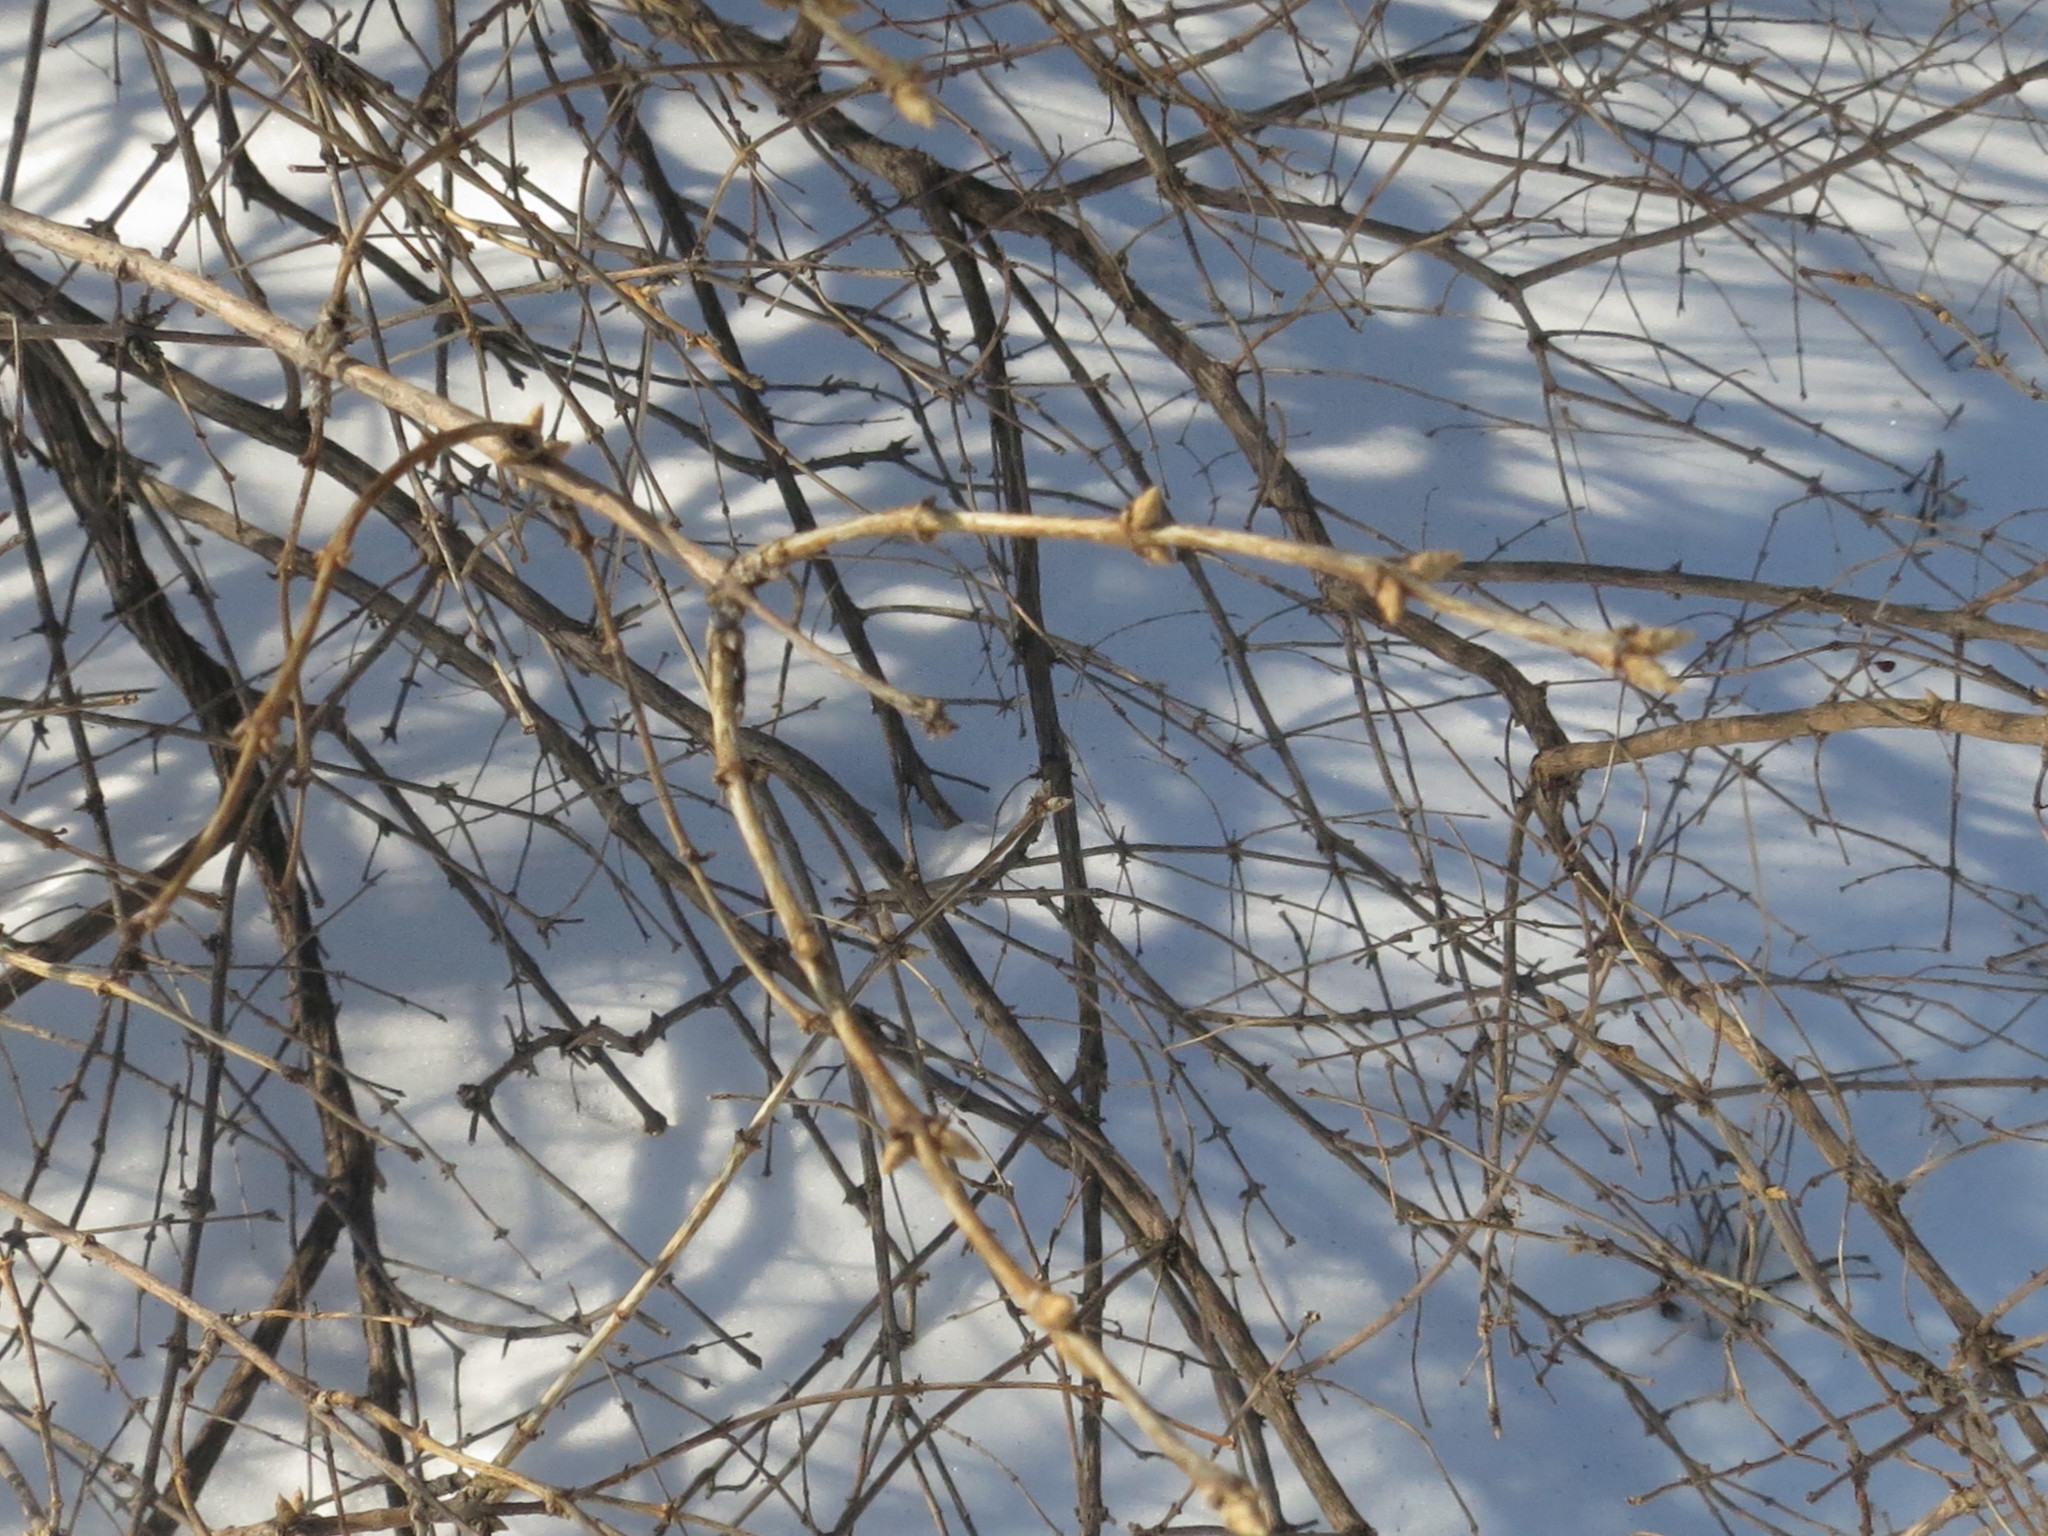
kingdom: Plantae
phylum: Tracheophyta
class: Magnoliopsida
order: Dipsacales
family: Caprifoliaceae
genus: Lonicera
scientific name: Lonicera maackii
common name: Amur honeysuckle
